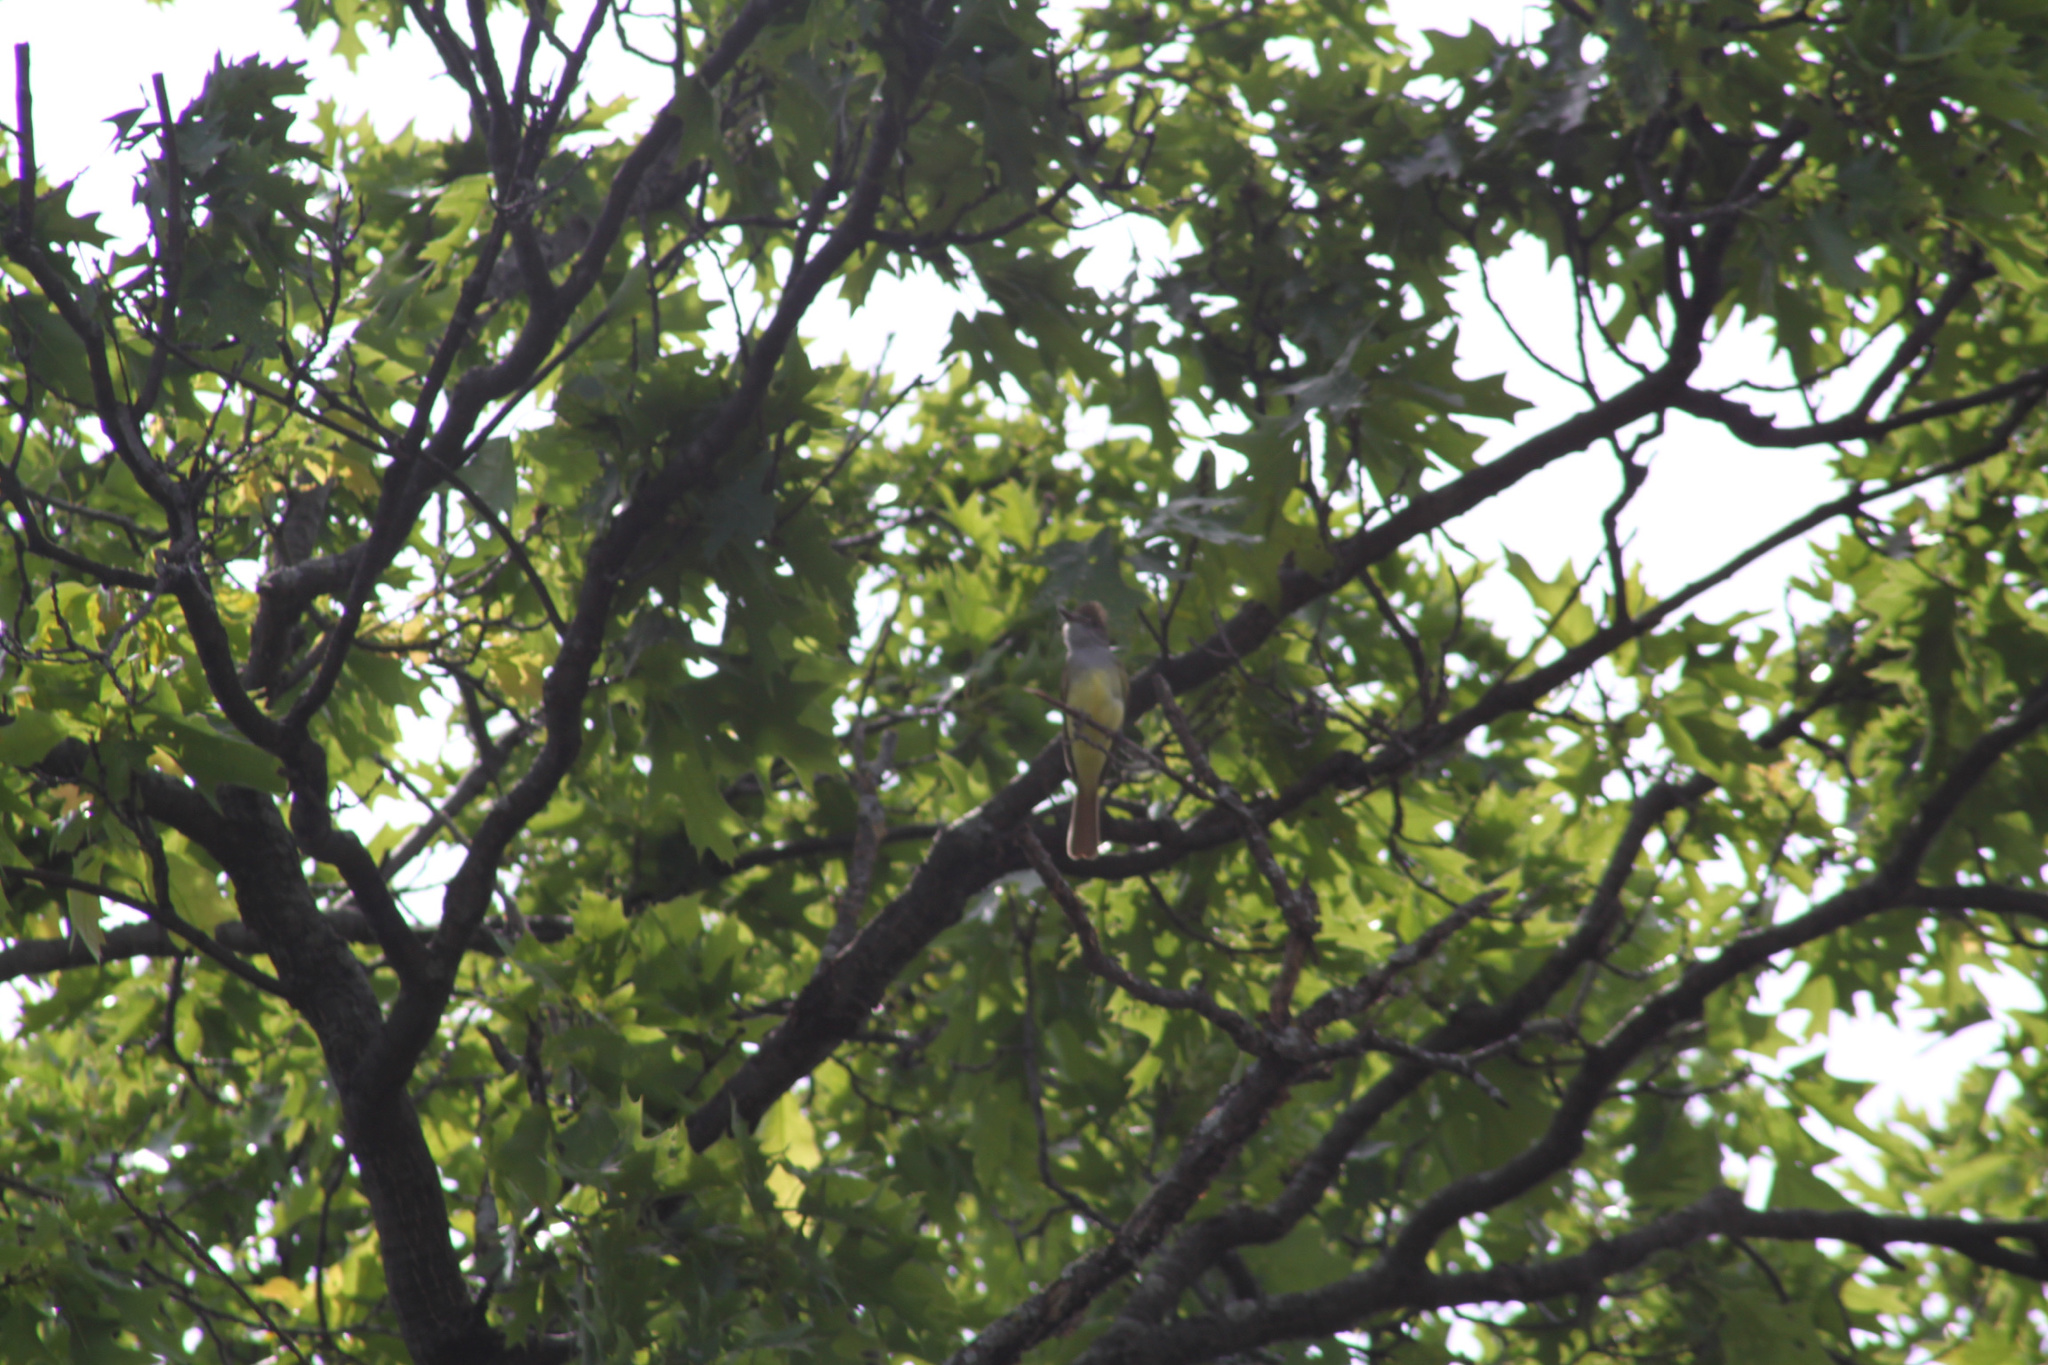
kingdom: Animalia
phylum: Chordata
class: Aves
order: Passeriformes
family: Tyrannidae
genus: Myiarchus
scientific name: Myiarchus crinitus
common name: Great crested flycatcher
